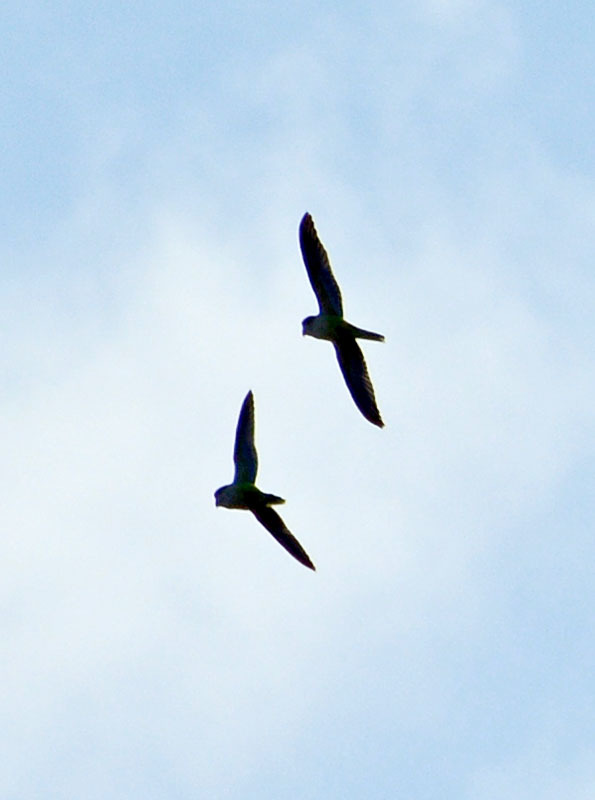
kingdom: Animalia
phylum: Chordata
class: Aves
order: Psittaciformes
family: Psittacidae
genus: Myiopsitta
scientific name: Myiopsitta monachus
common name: Monk parakeet
